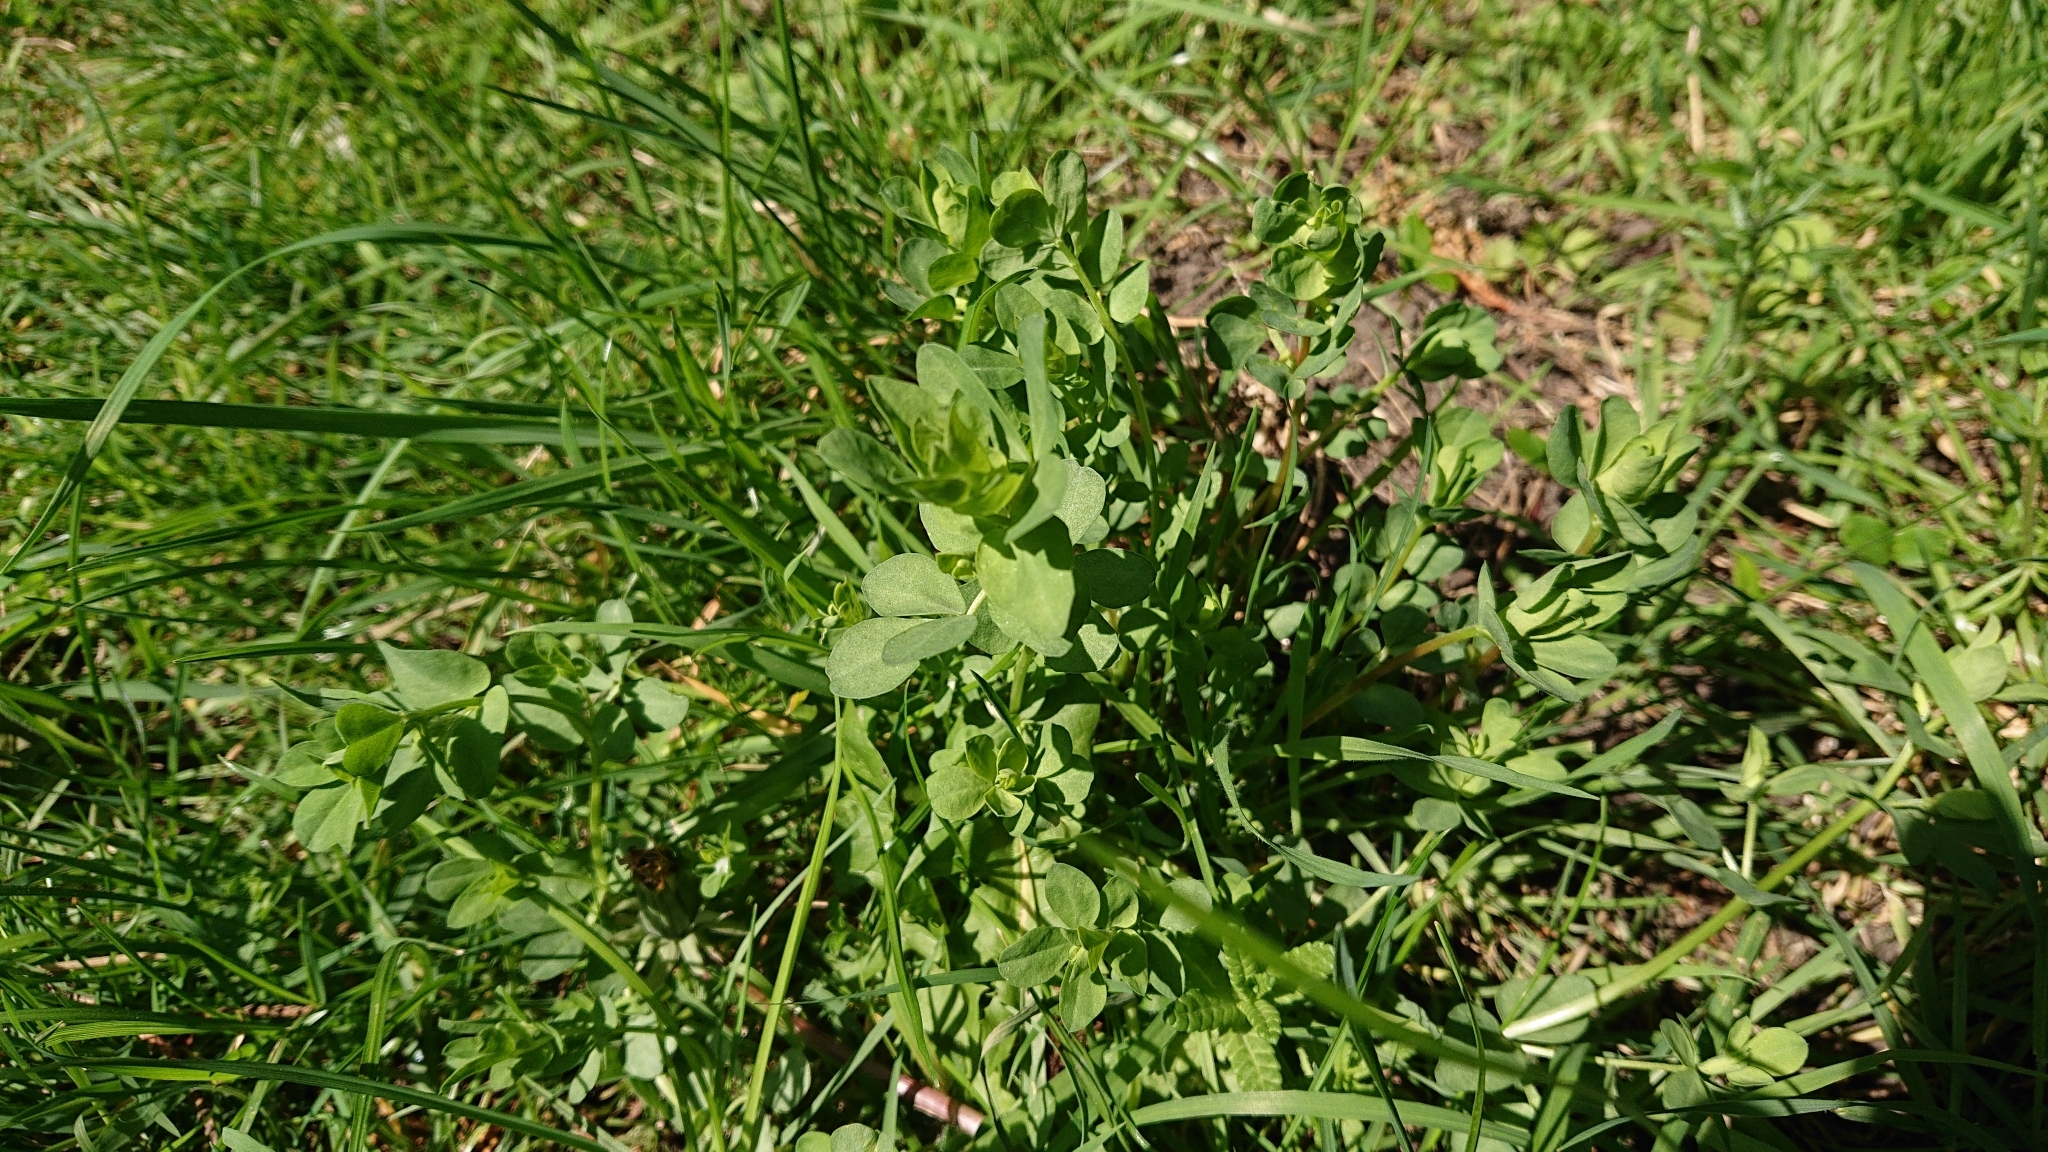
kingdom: Plantae
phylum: Tracheophyta
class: Magnoliopsida
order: Fabales
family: Fabaceae
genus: Lotus
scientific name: Lotus corniculatus
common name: Common bird's-foot-trefoil
